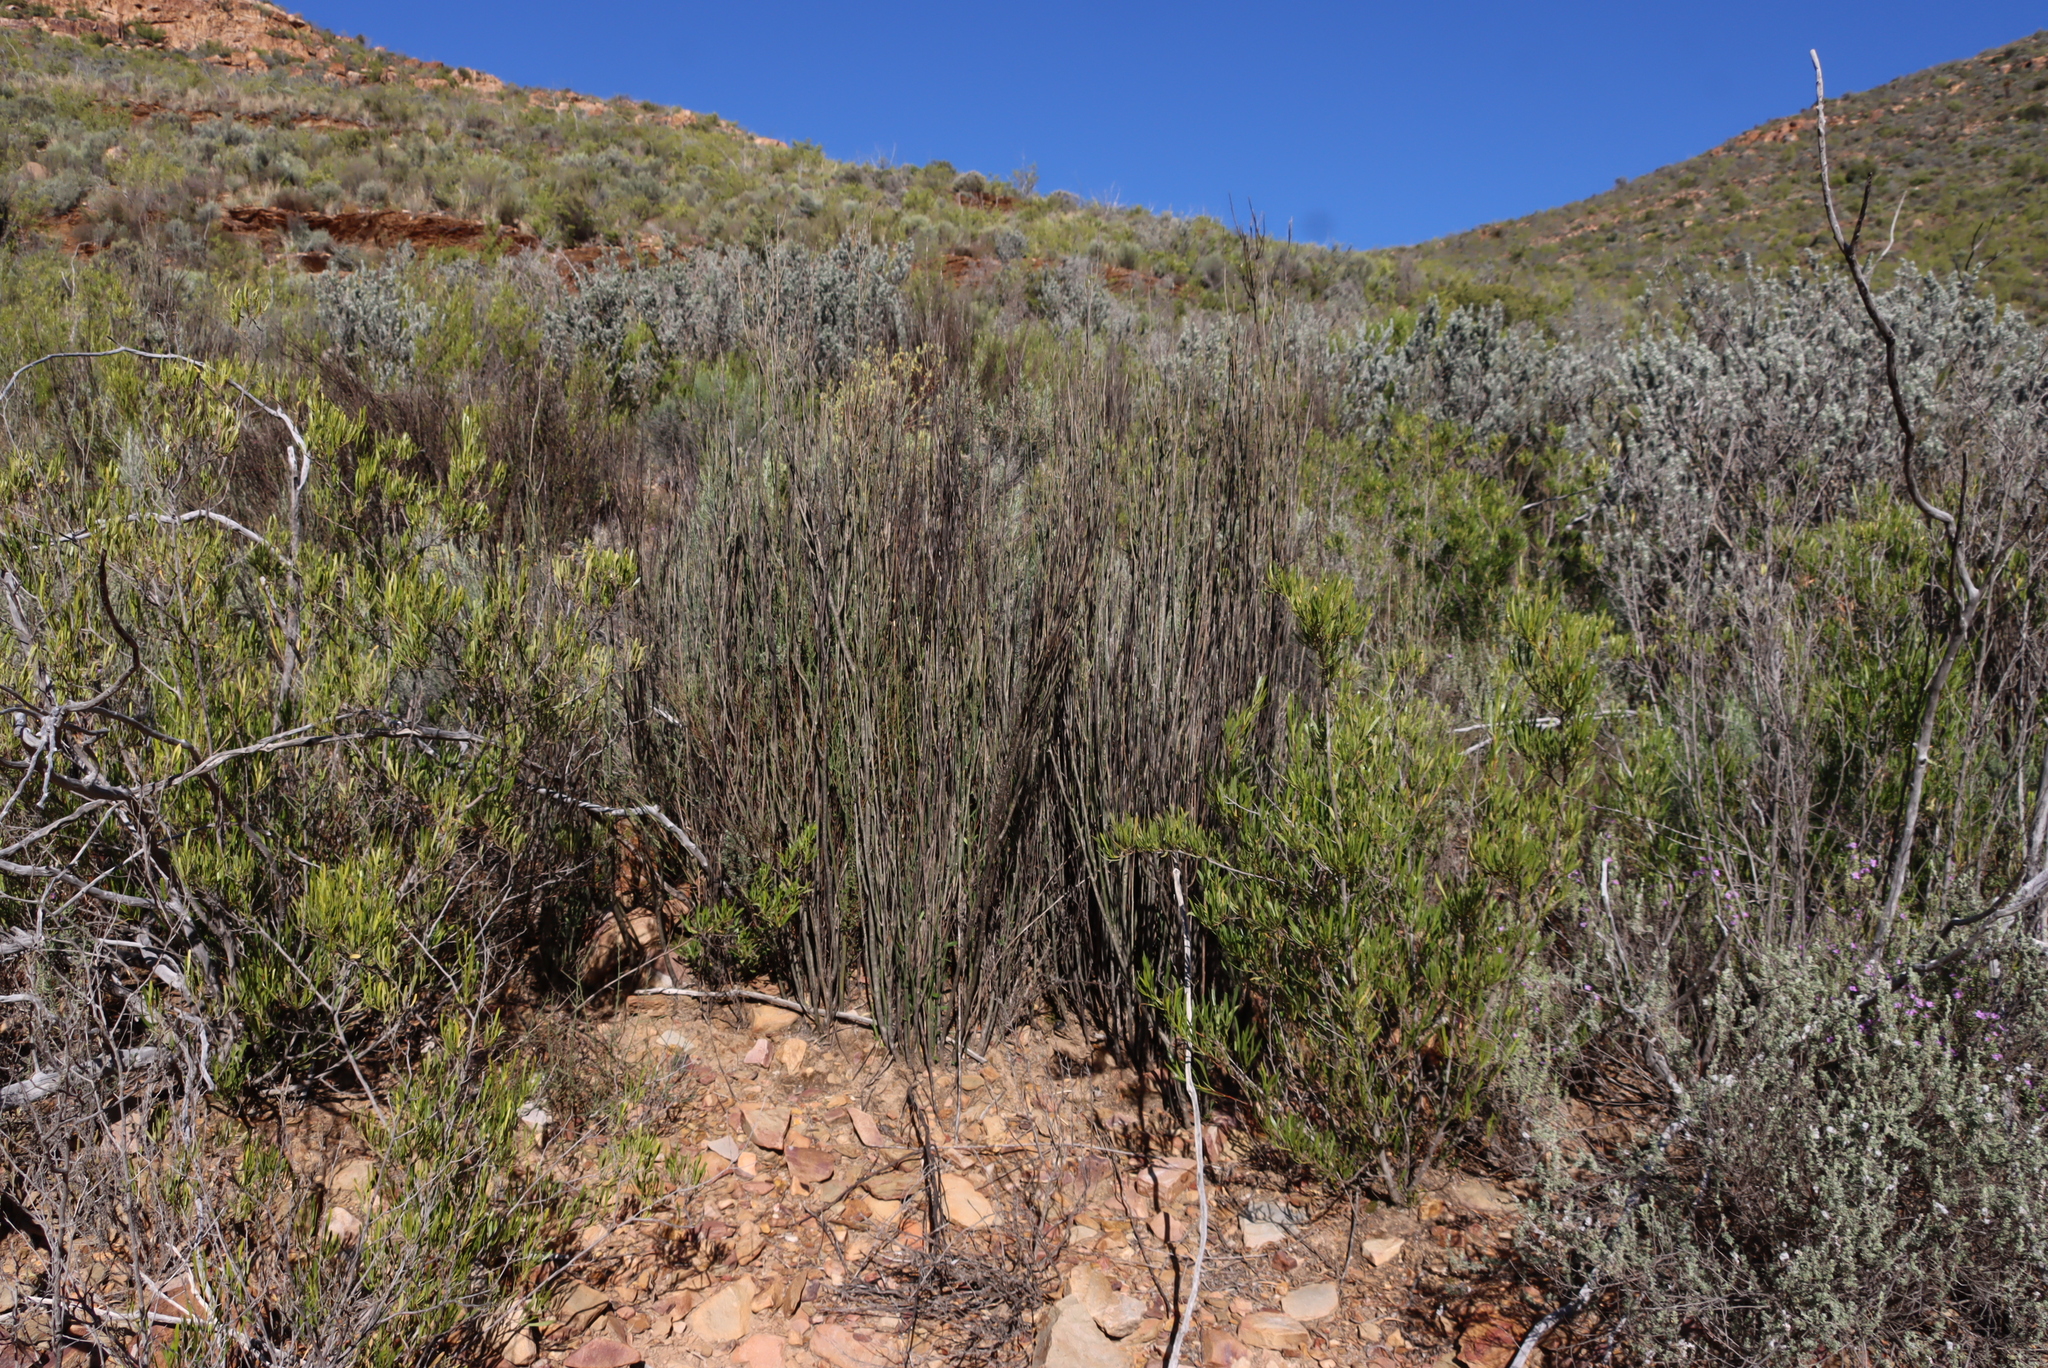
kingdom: Plantae
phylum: Tracheophyta
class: Magnoliopsida
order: Solanales
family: Montiniaceae
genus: Montinia
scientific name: Montinia caryophyllacea
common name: Wild clove-bush
